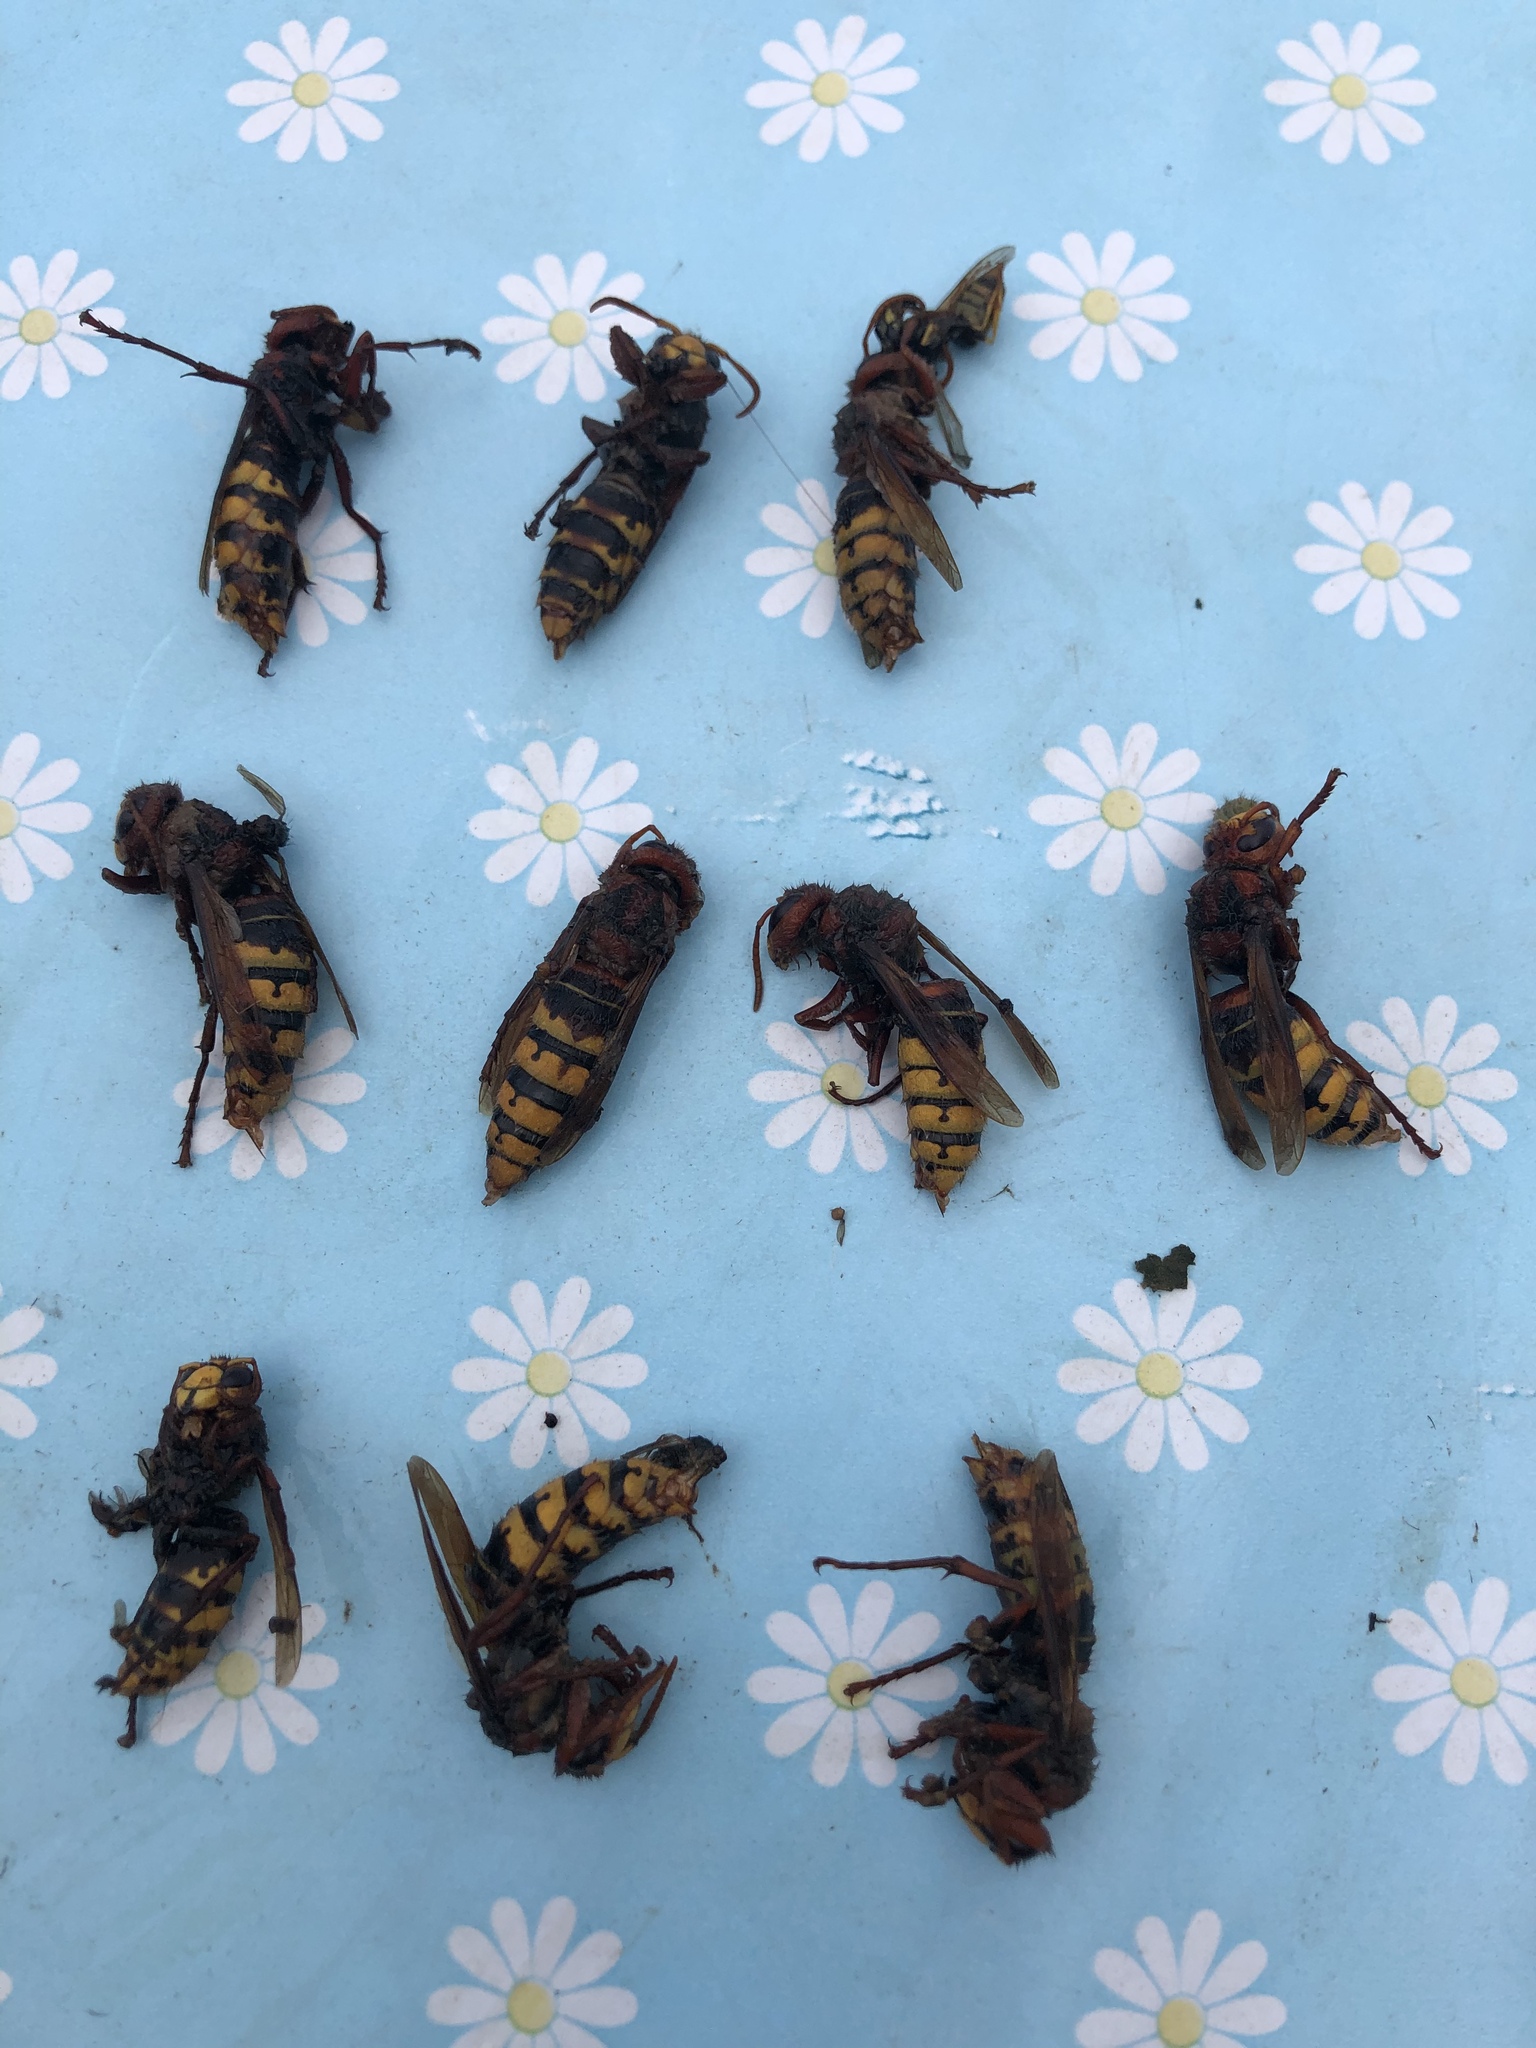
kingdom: Animalia
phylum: Arthropoda
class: Insecta
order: Hymenoptera
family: Vespidae
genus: Vespa
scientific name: Vespa crabro
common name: Hornet
